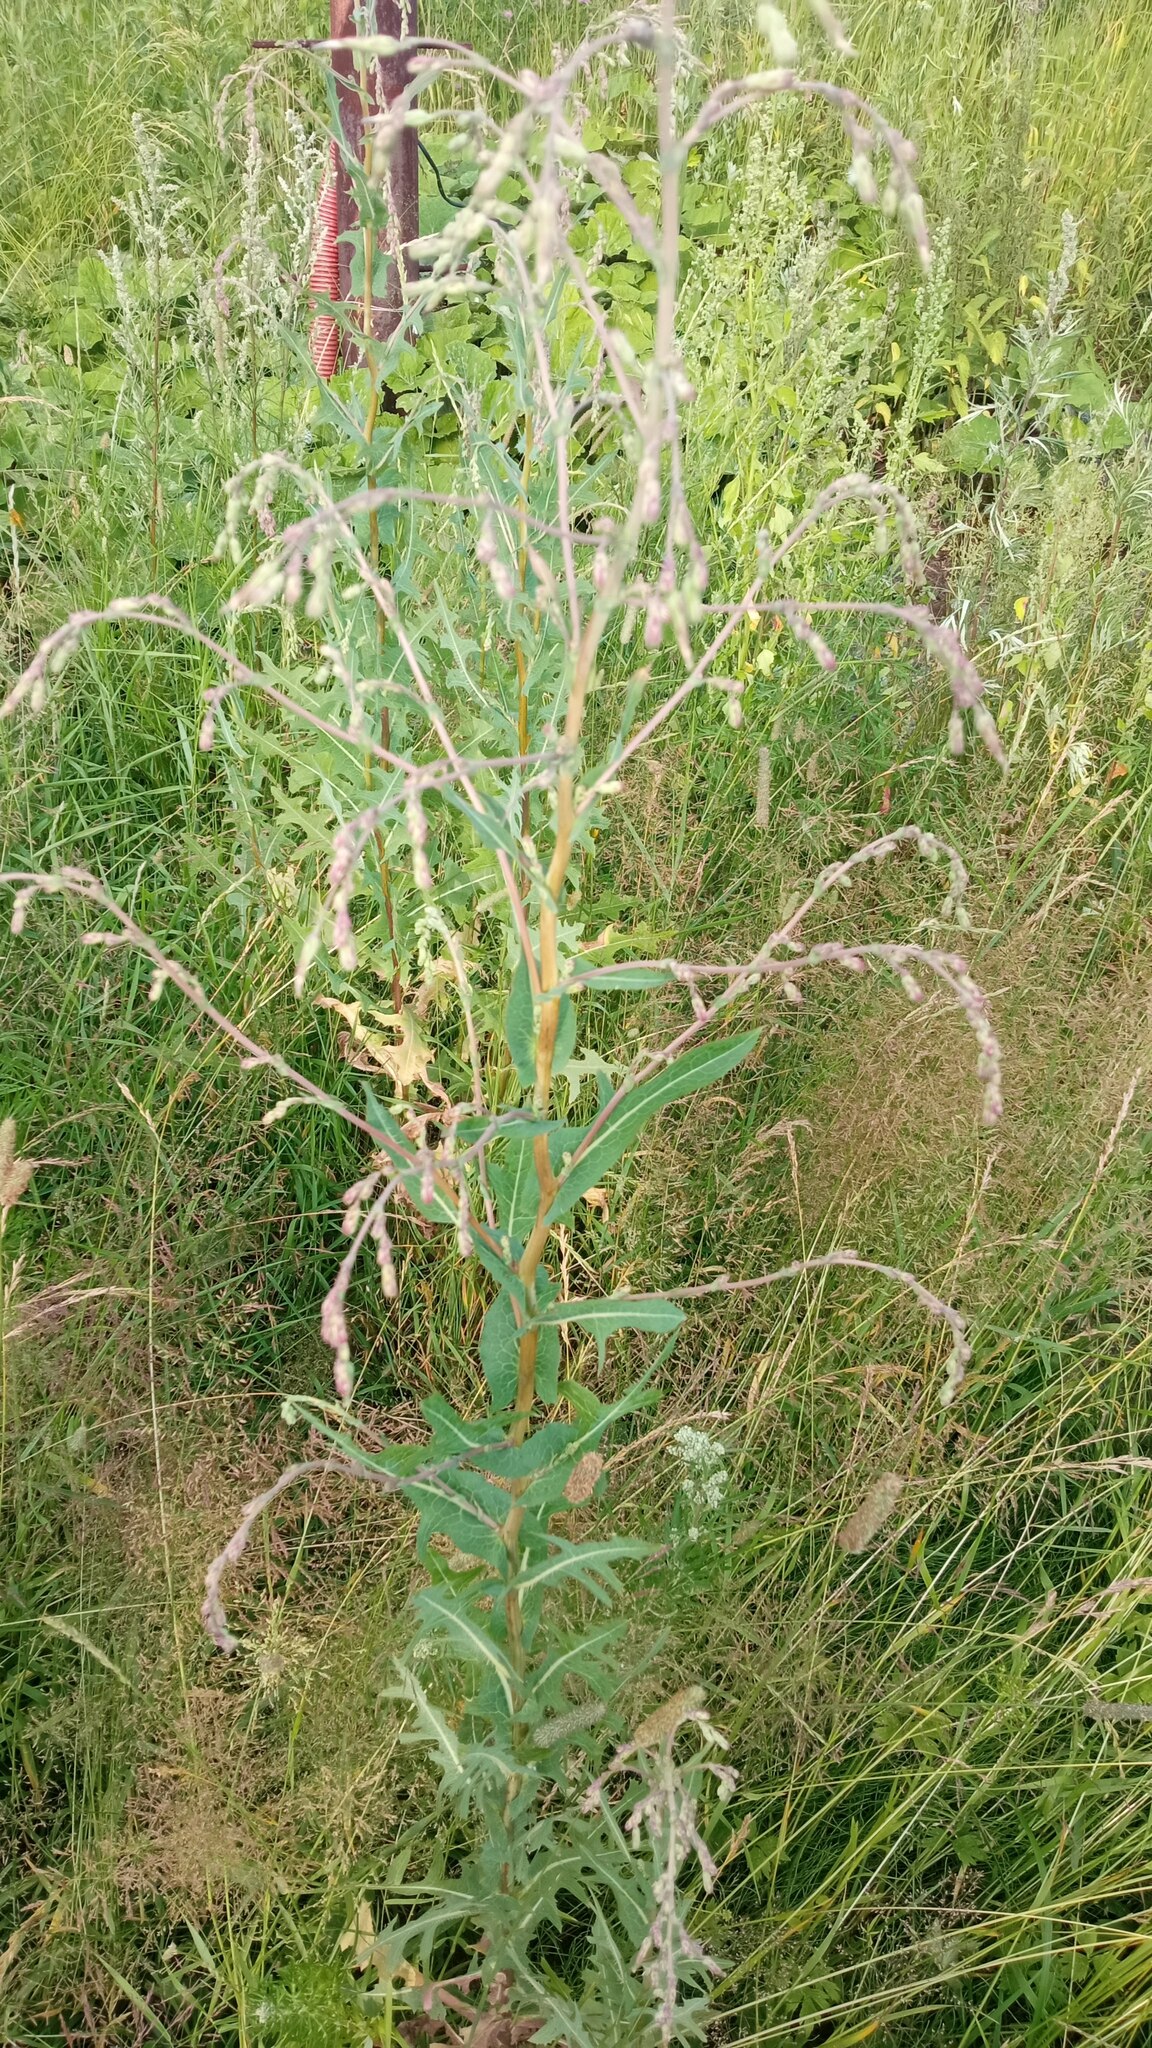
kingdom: Plantae
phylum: Tracheophyta
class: Magnoliopsida
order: Asterales
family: Asteraceae
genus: Lactuca
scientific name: Lactuca serriola
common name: Prickly lettuce
